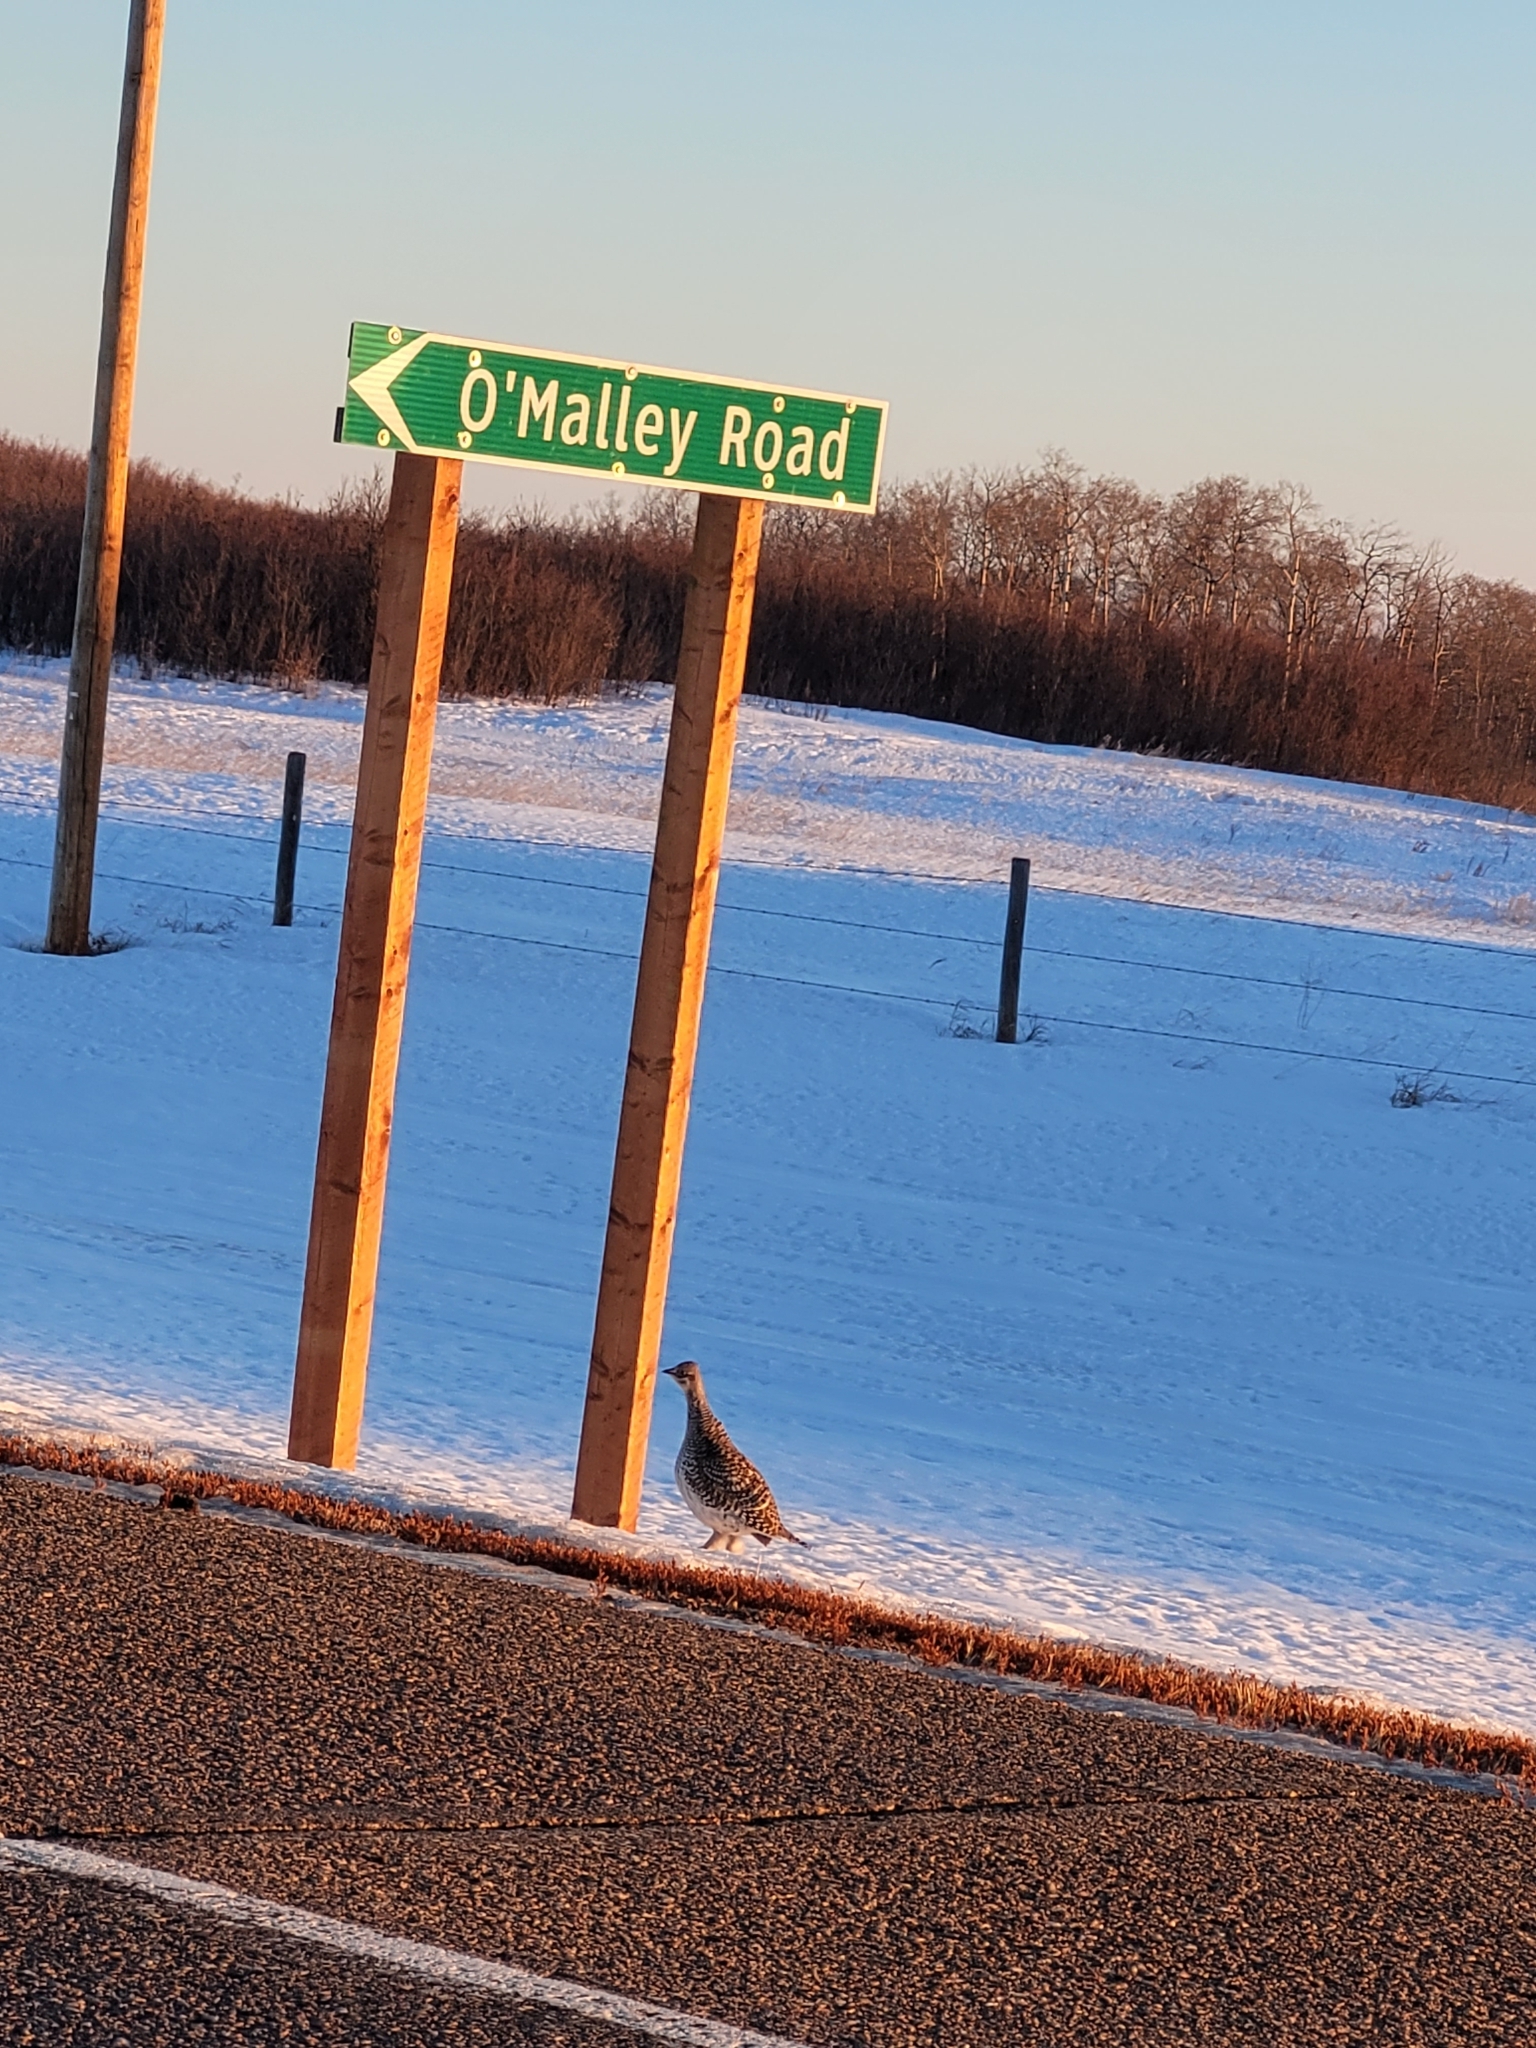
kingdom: Animalia
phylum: Chordata
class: Aves
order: Galliformes
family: Phasianidae
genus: Tympanuchus
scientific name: Tympanuchus phasianellus
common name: Sharp-tailed grouse
